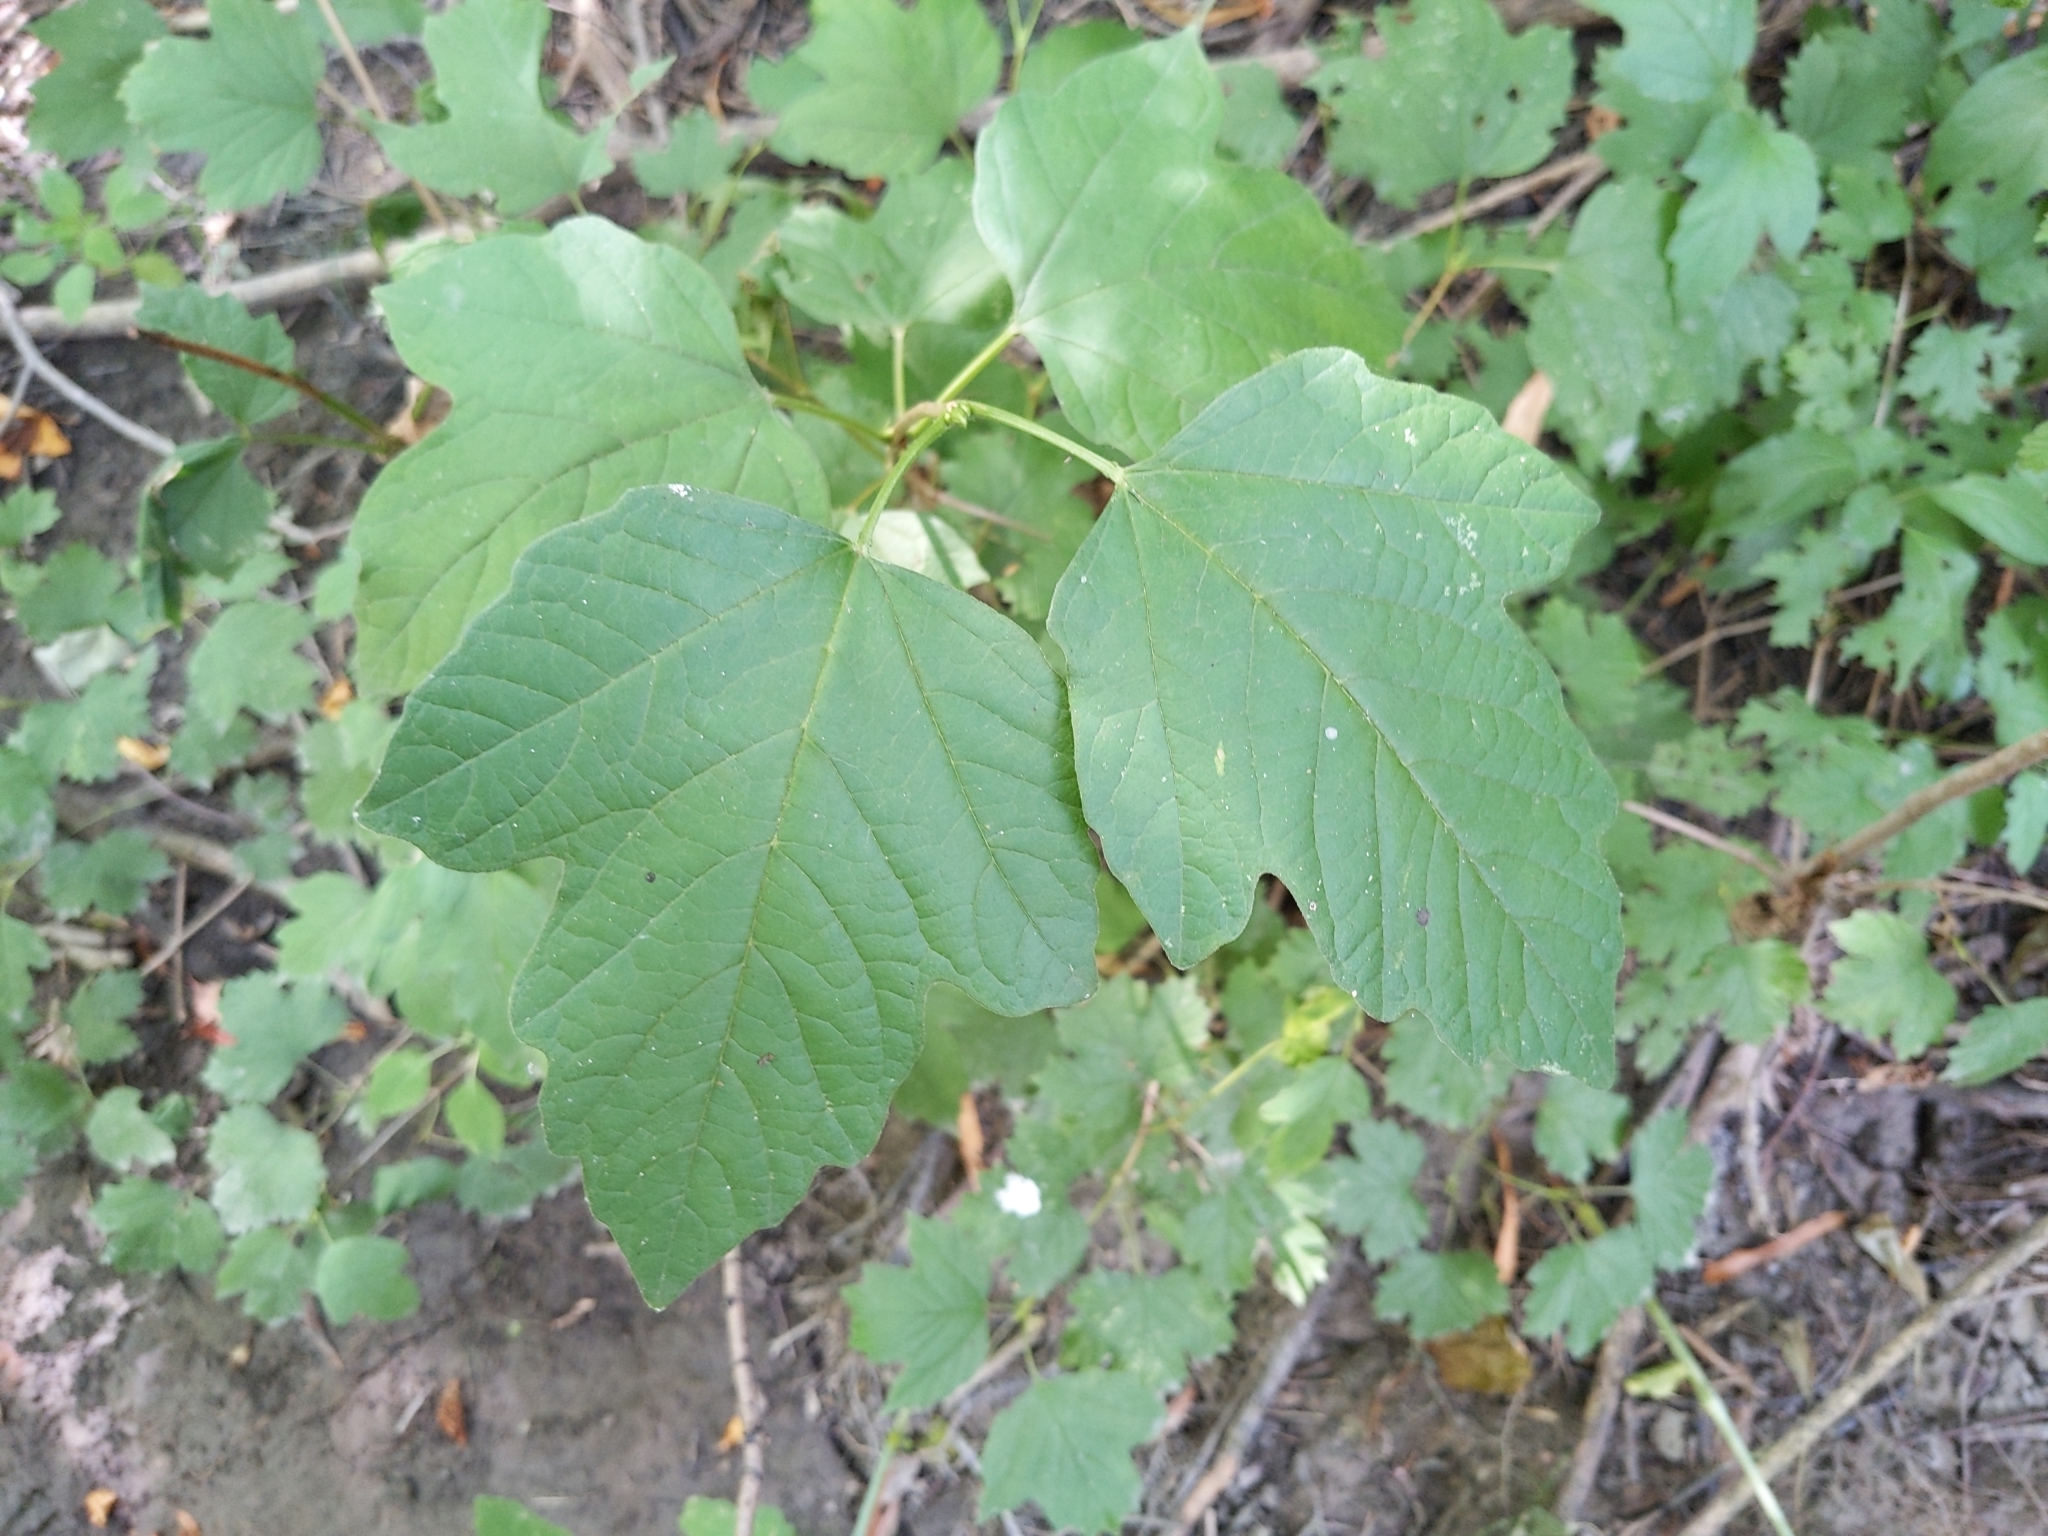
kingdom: Plantae
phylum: Tracheophyta
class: Magnoliopsida
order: Dipsacales
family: Viburnaceae
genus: Viburnum
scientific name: Viburnum opulus
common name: Guelder-rose
